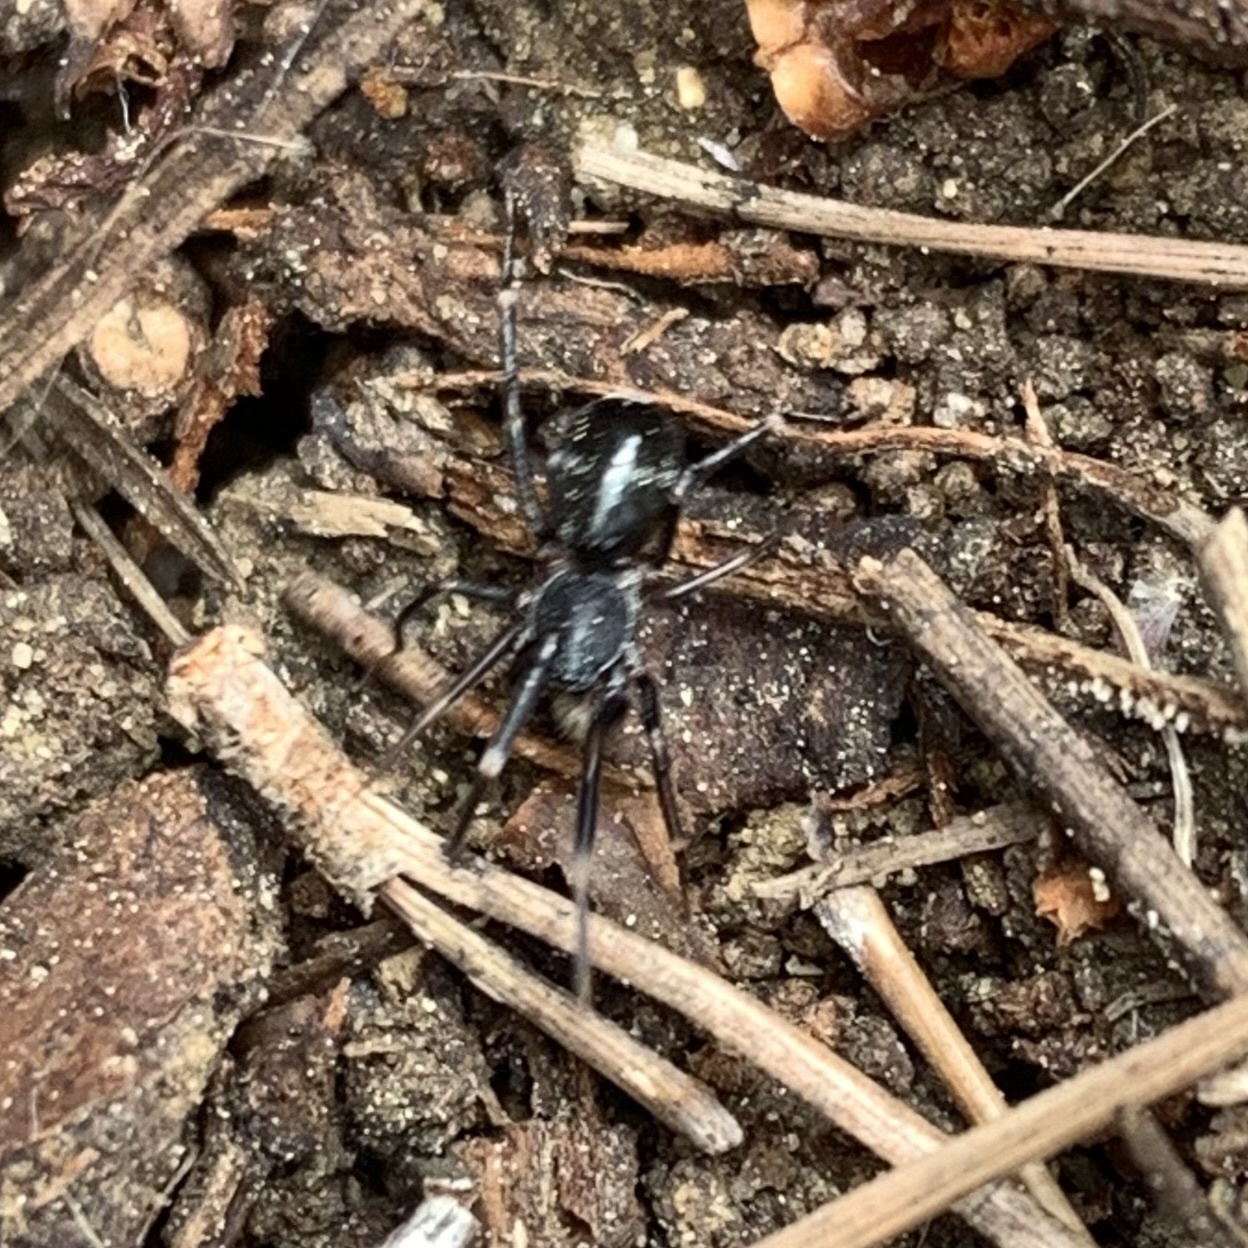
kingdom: Animalia
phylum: Arthropoda
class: Arachnida
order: Araneae
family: Phrurolithidae
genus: Liophrurillus
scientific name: Liophrurillus flavitarsis
